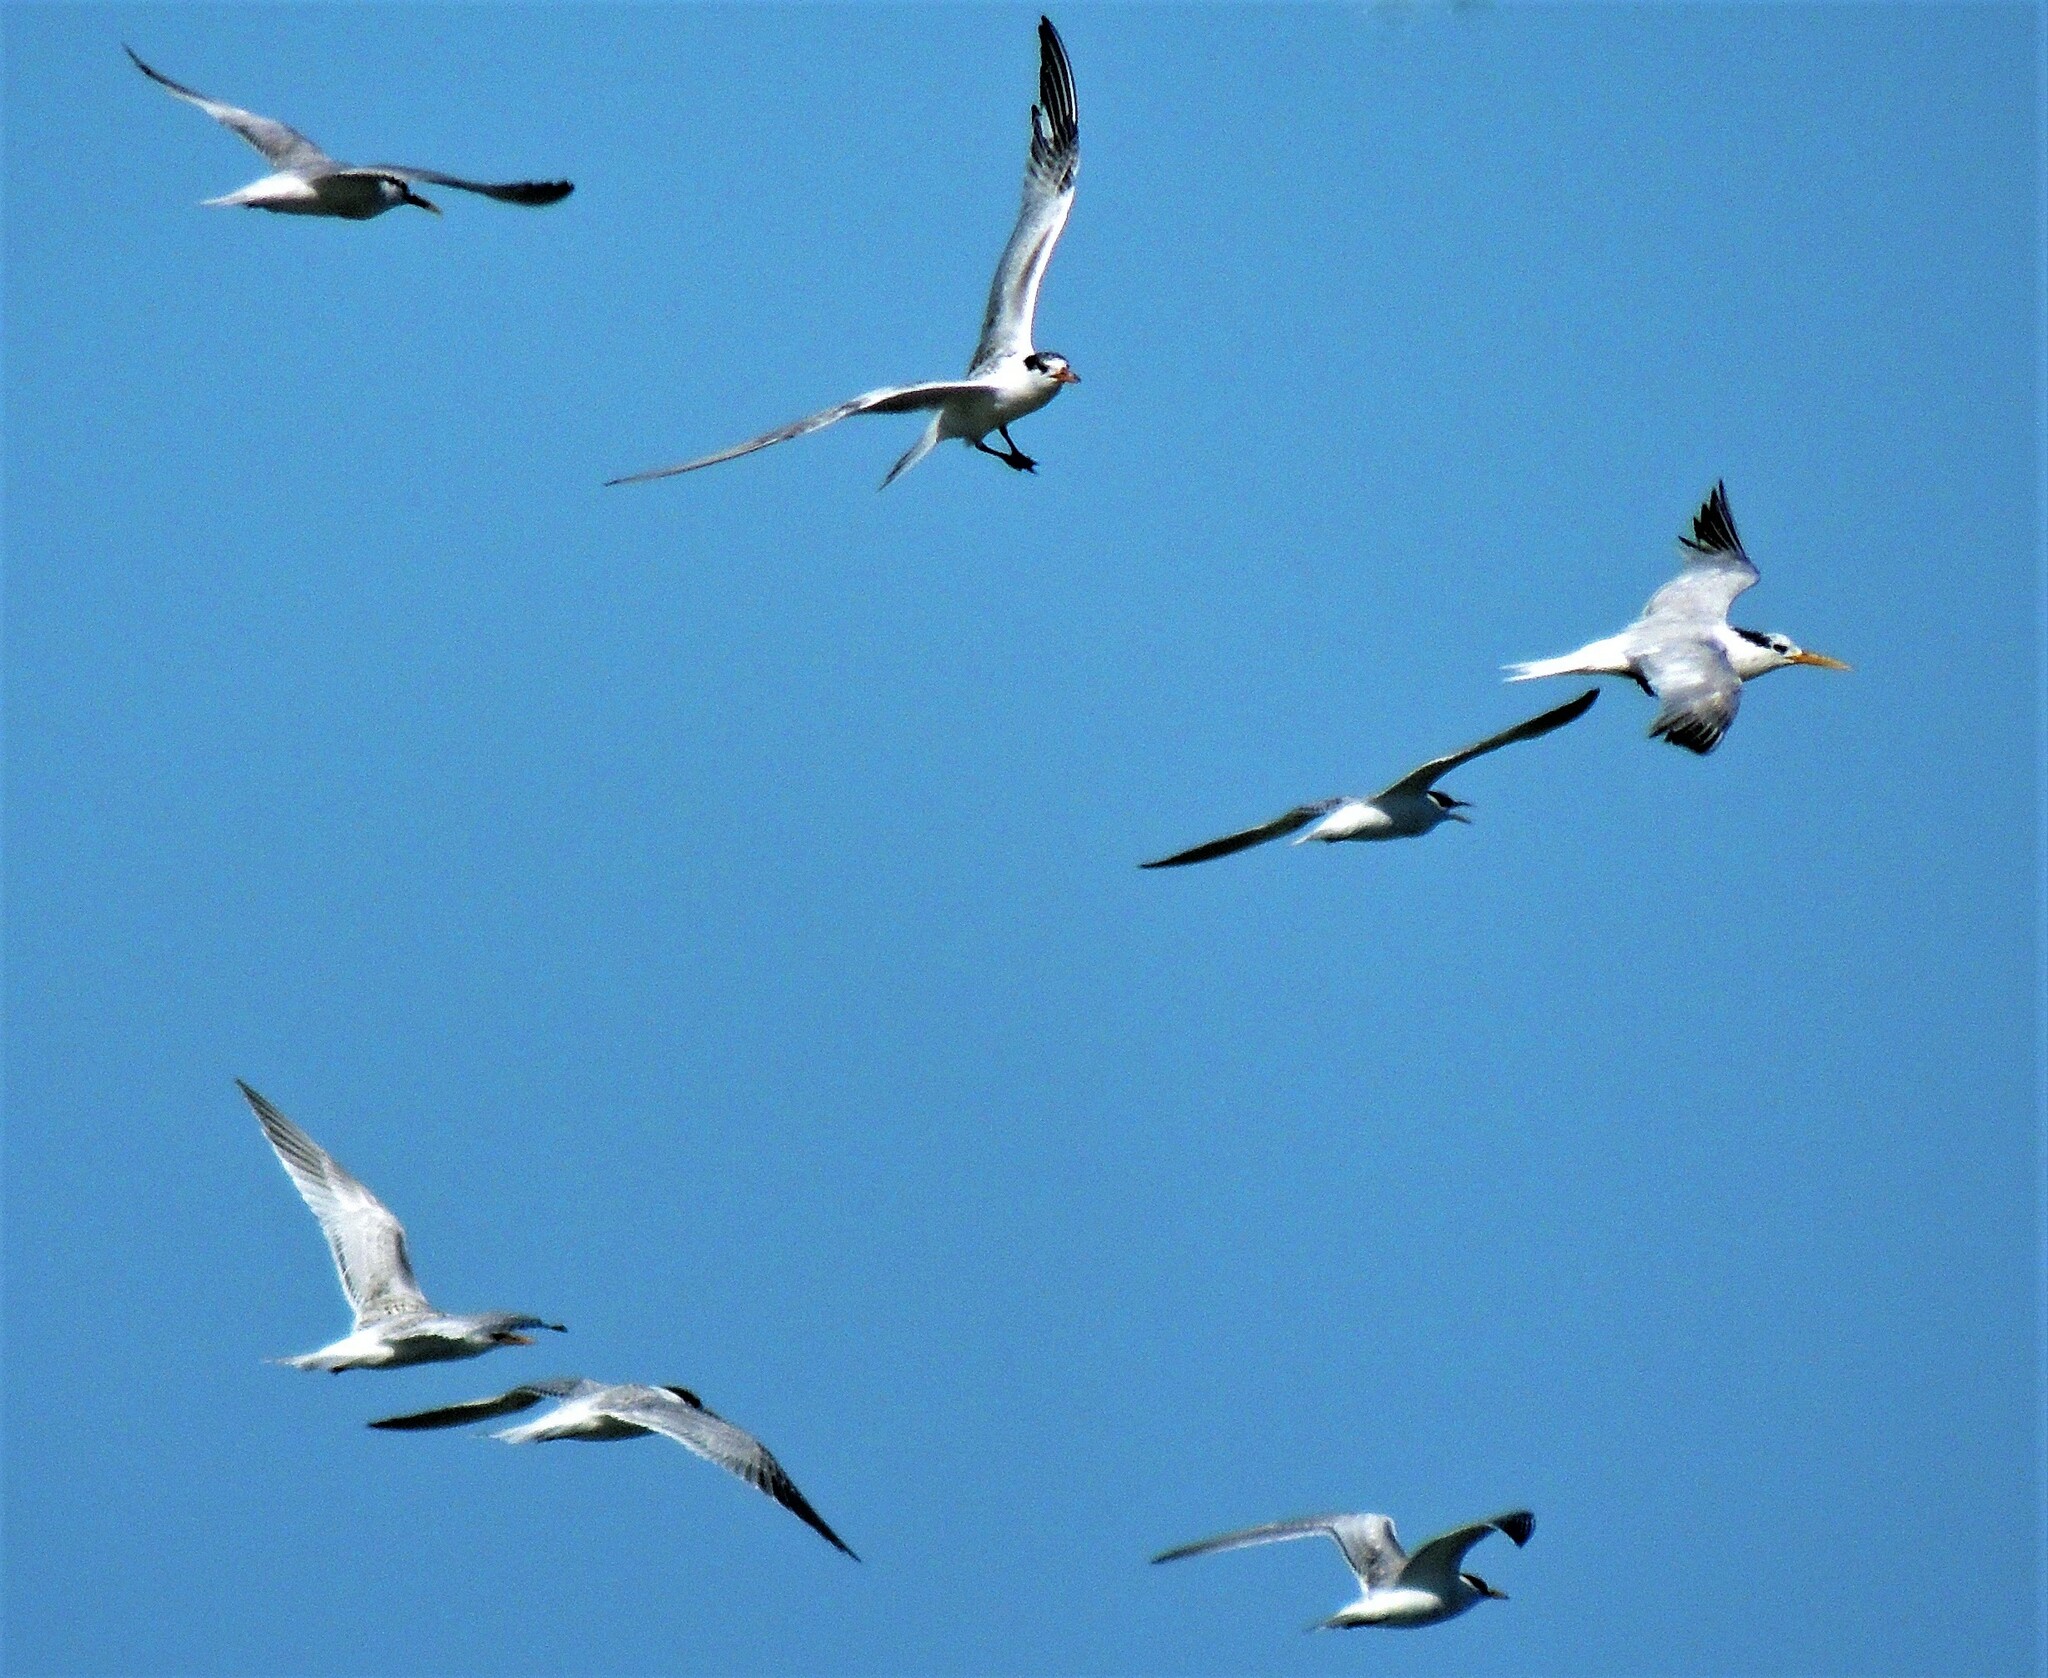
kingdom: Animalia
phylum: Chordata
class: Aves
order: Charadriiformes
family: Laridae
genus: Thalasseus
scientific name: Thalasseus sandvicensis
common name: Sandwich tern
